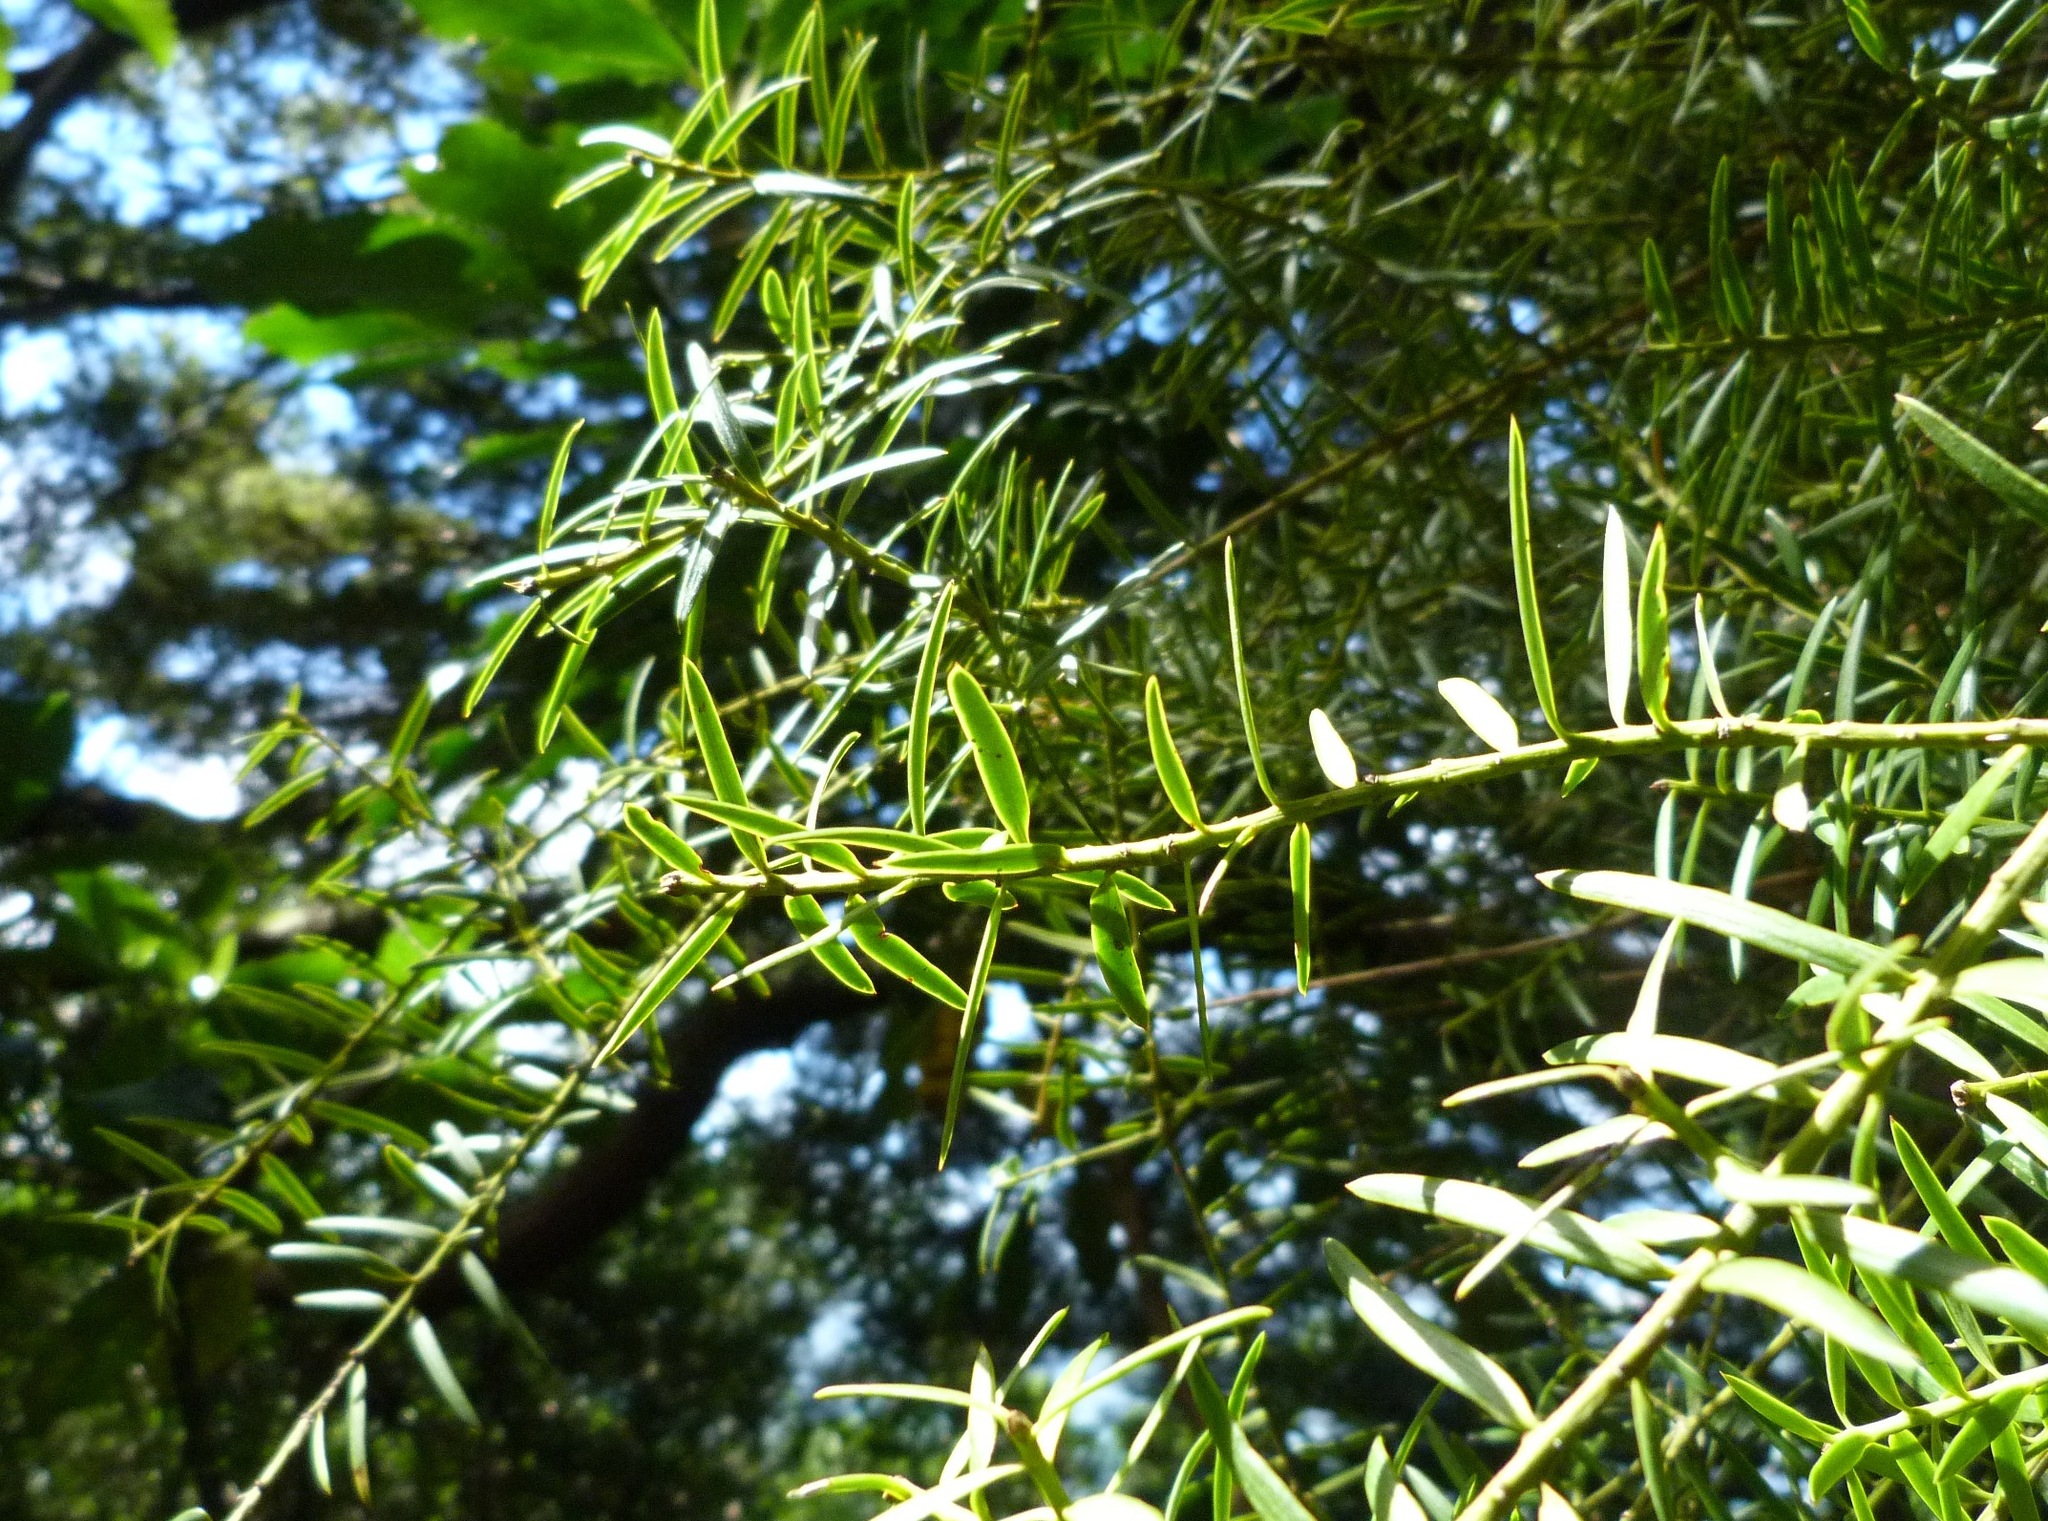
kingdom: Plantae
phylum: Tracheophyta
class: Pinopsida
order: Pinales
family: Podocarpaceae
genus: Podocarpus
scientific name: Podocarpus totara
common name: Totara
